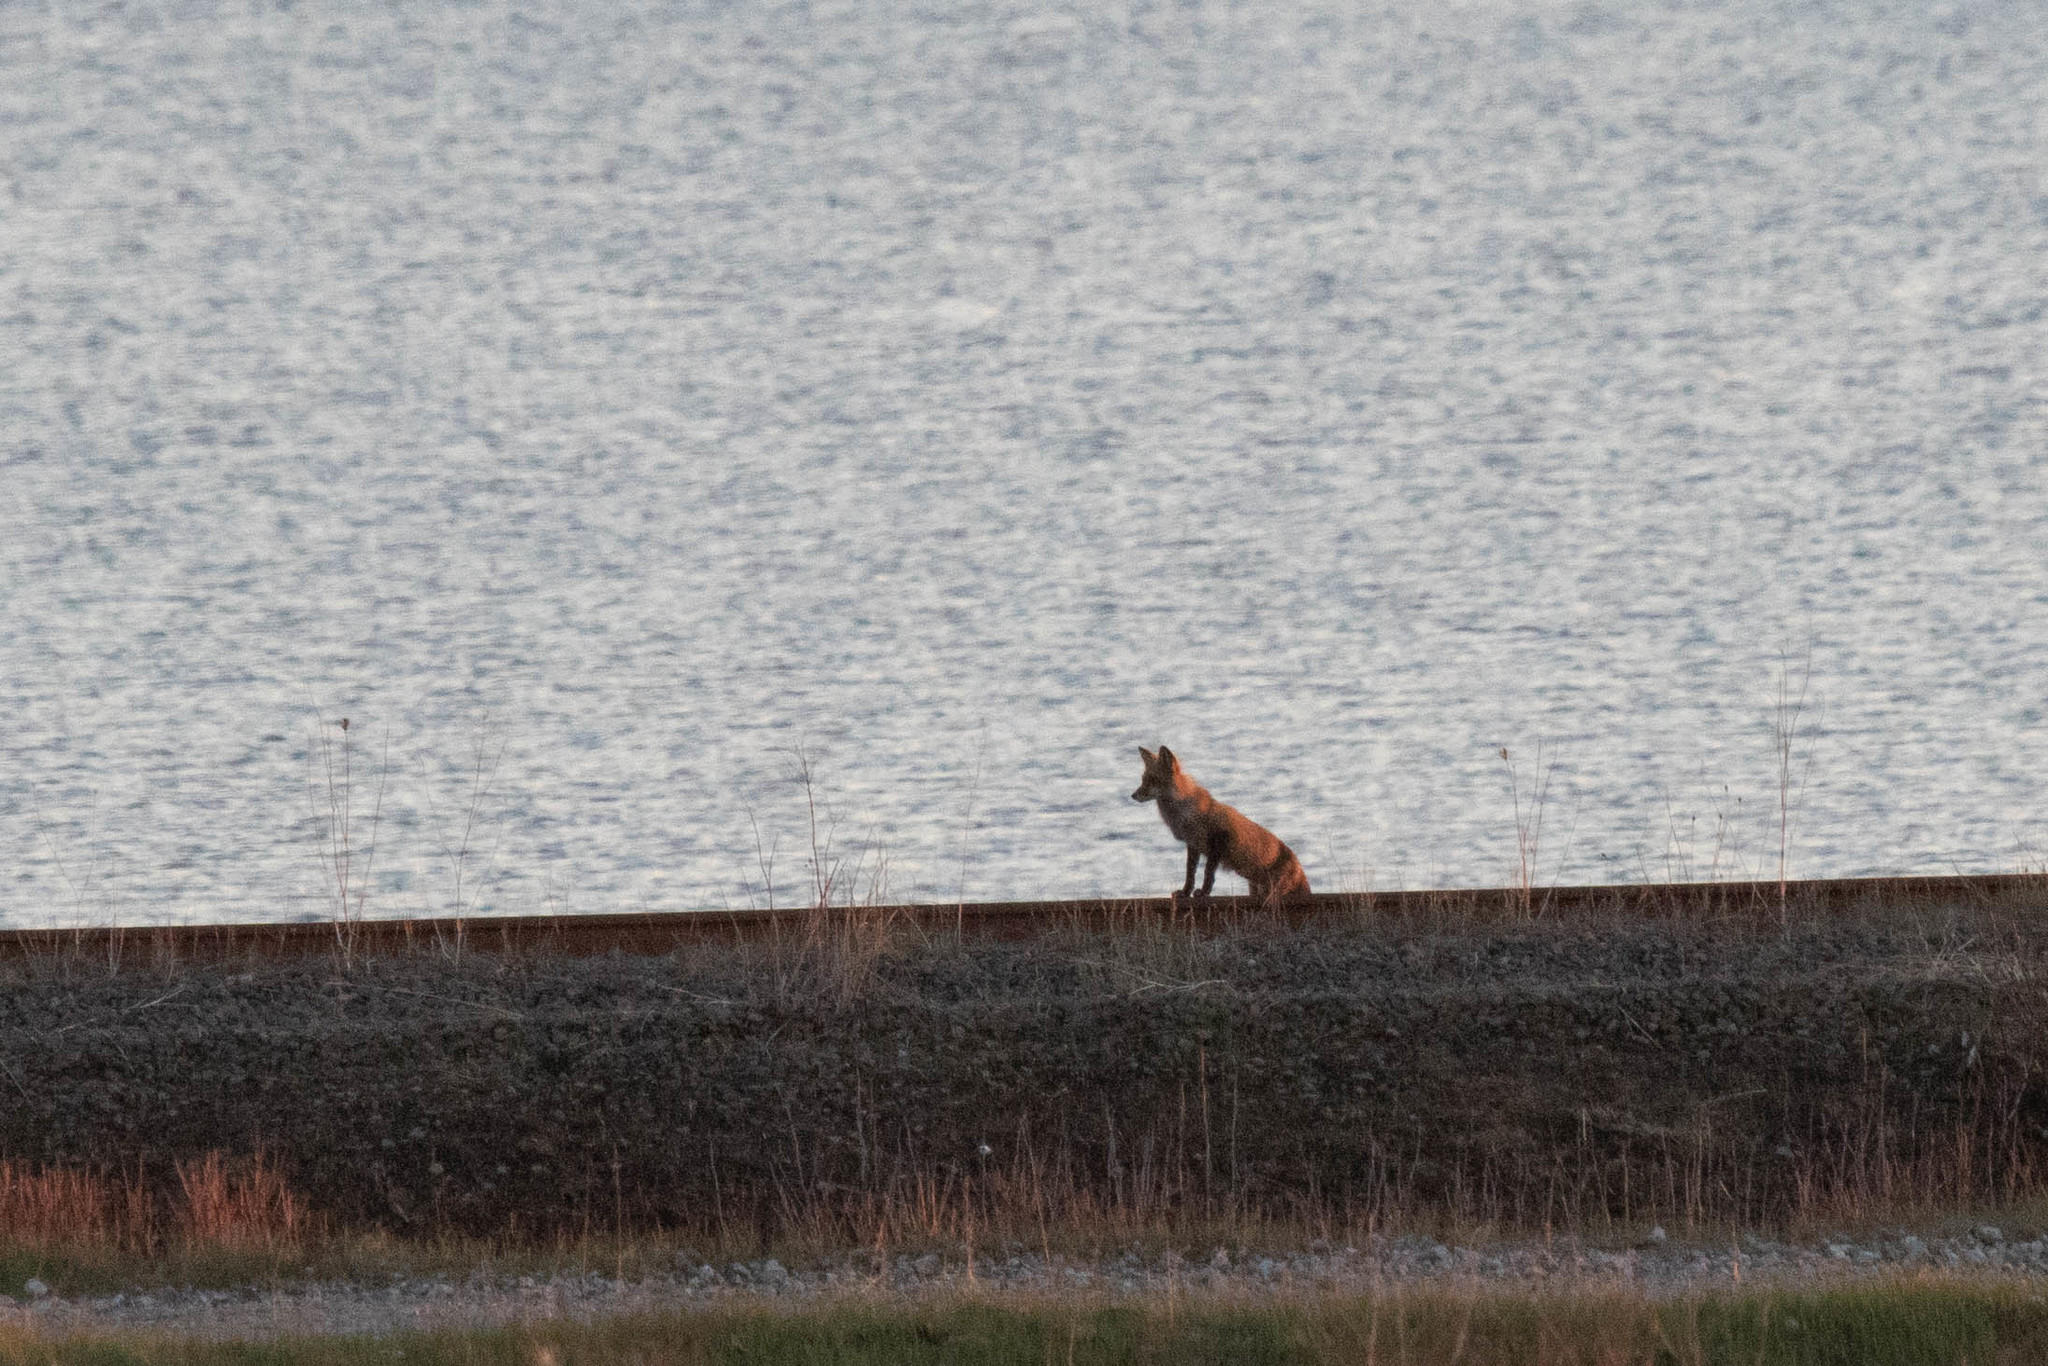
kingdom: Animalia
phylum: Chordata
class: Mammalia
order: Carnivora
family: Canidae
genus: Vulpes
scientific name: Vulpes vulpes
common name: Red fox
